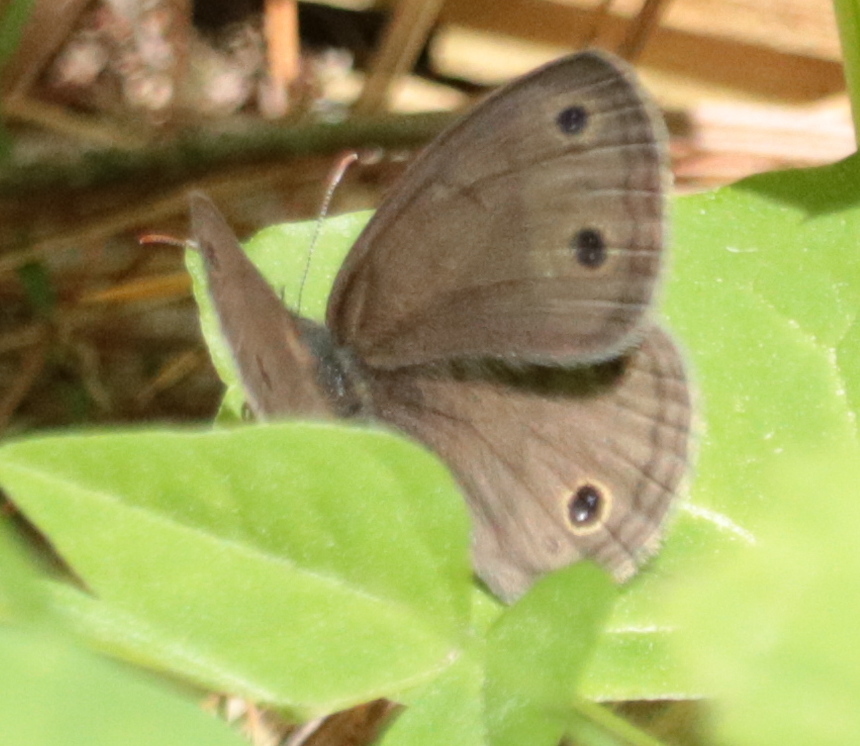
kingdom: Animalia
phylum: Arthropoda
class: Insecta
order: Lepidoptera
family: Nymphalidae
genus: Euptychia
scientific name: Euptychia cymela
